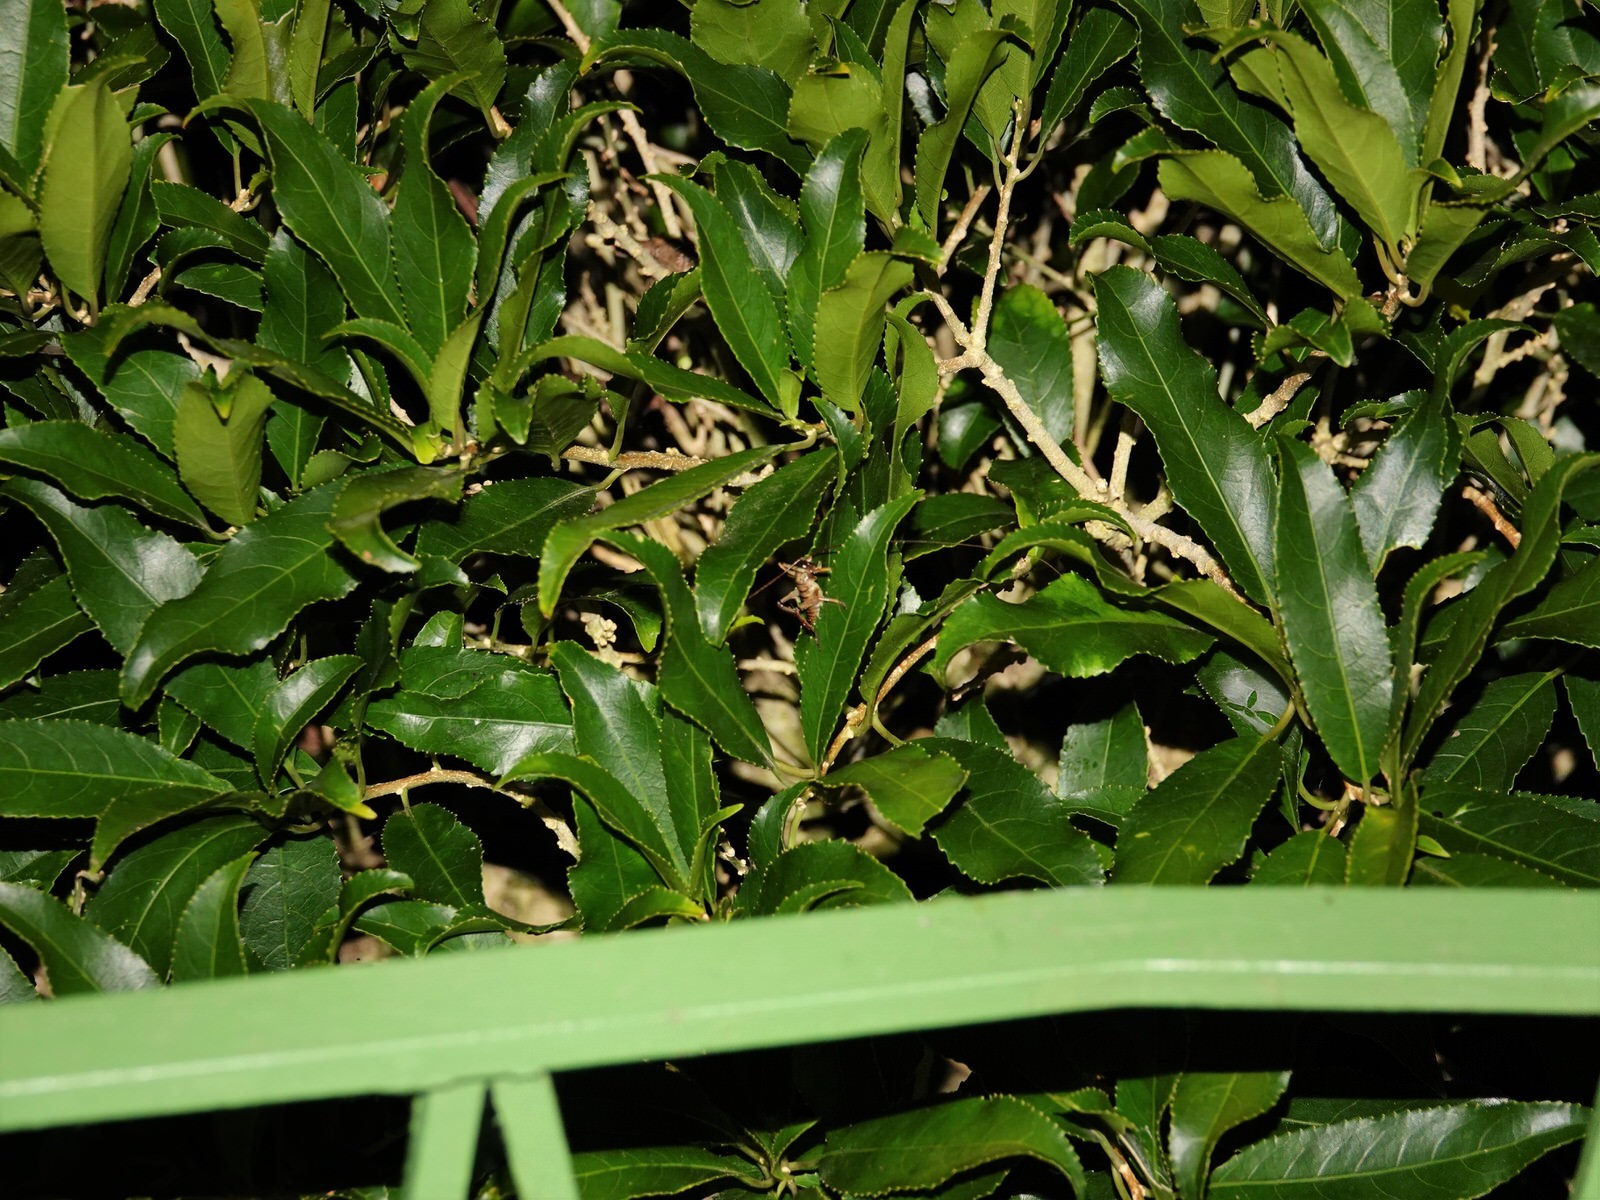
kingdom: Animalia
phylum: Arthropoda
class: Insecta
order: Orthoptera
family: Anostostomatidae
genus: Hemideina
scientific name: Hemideina thoracica
